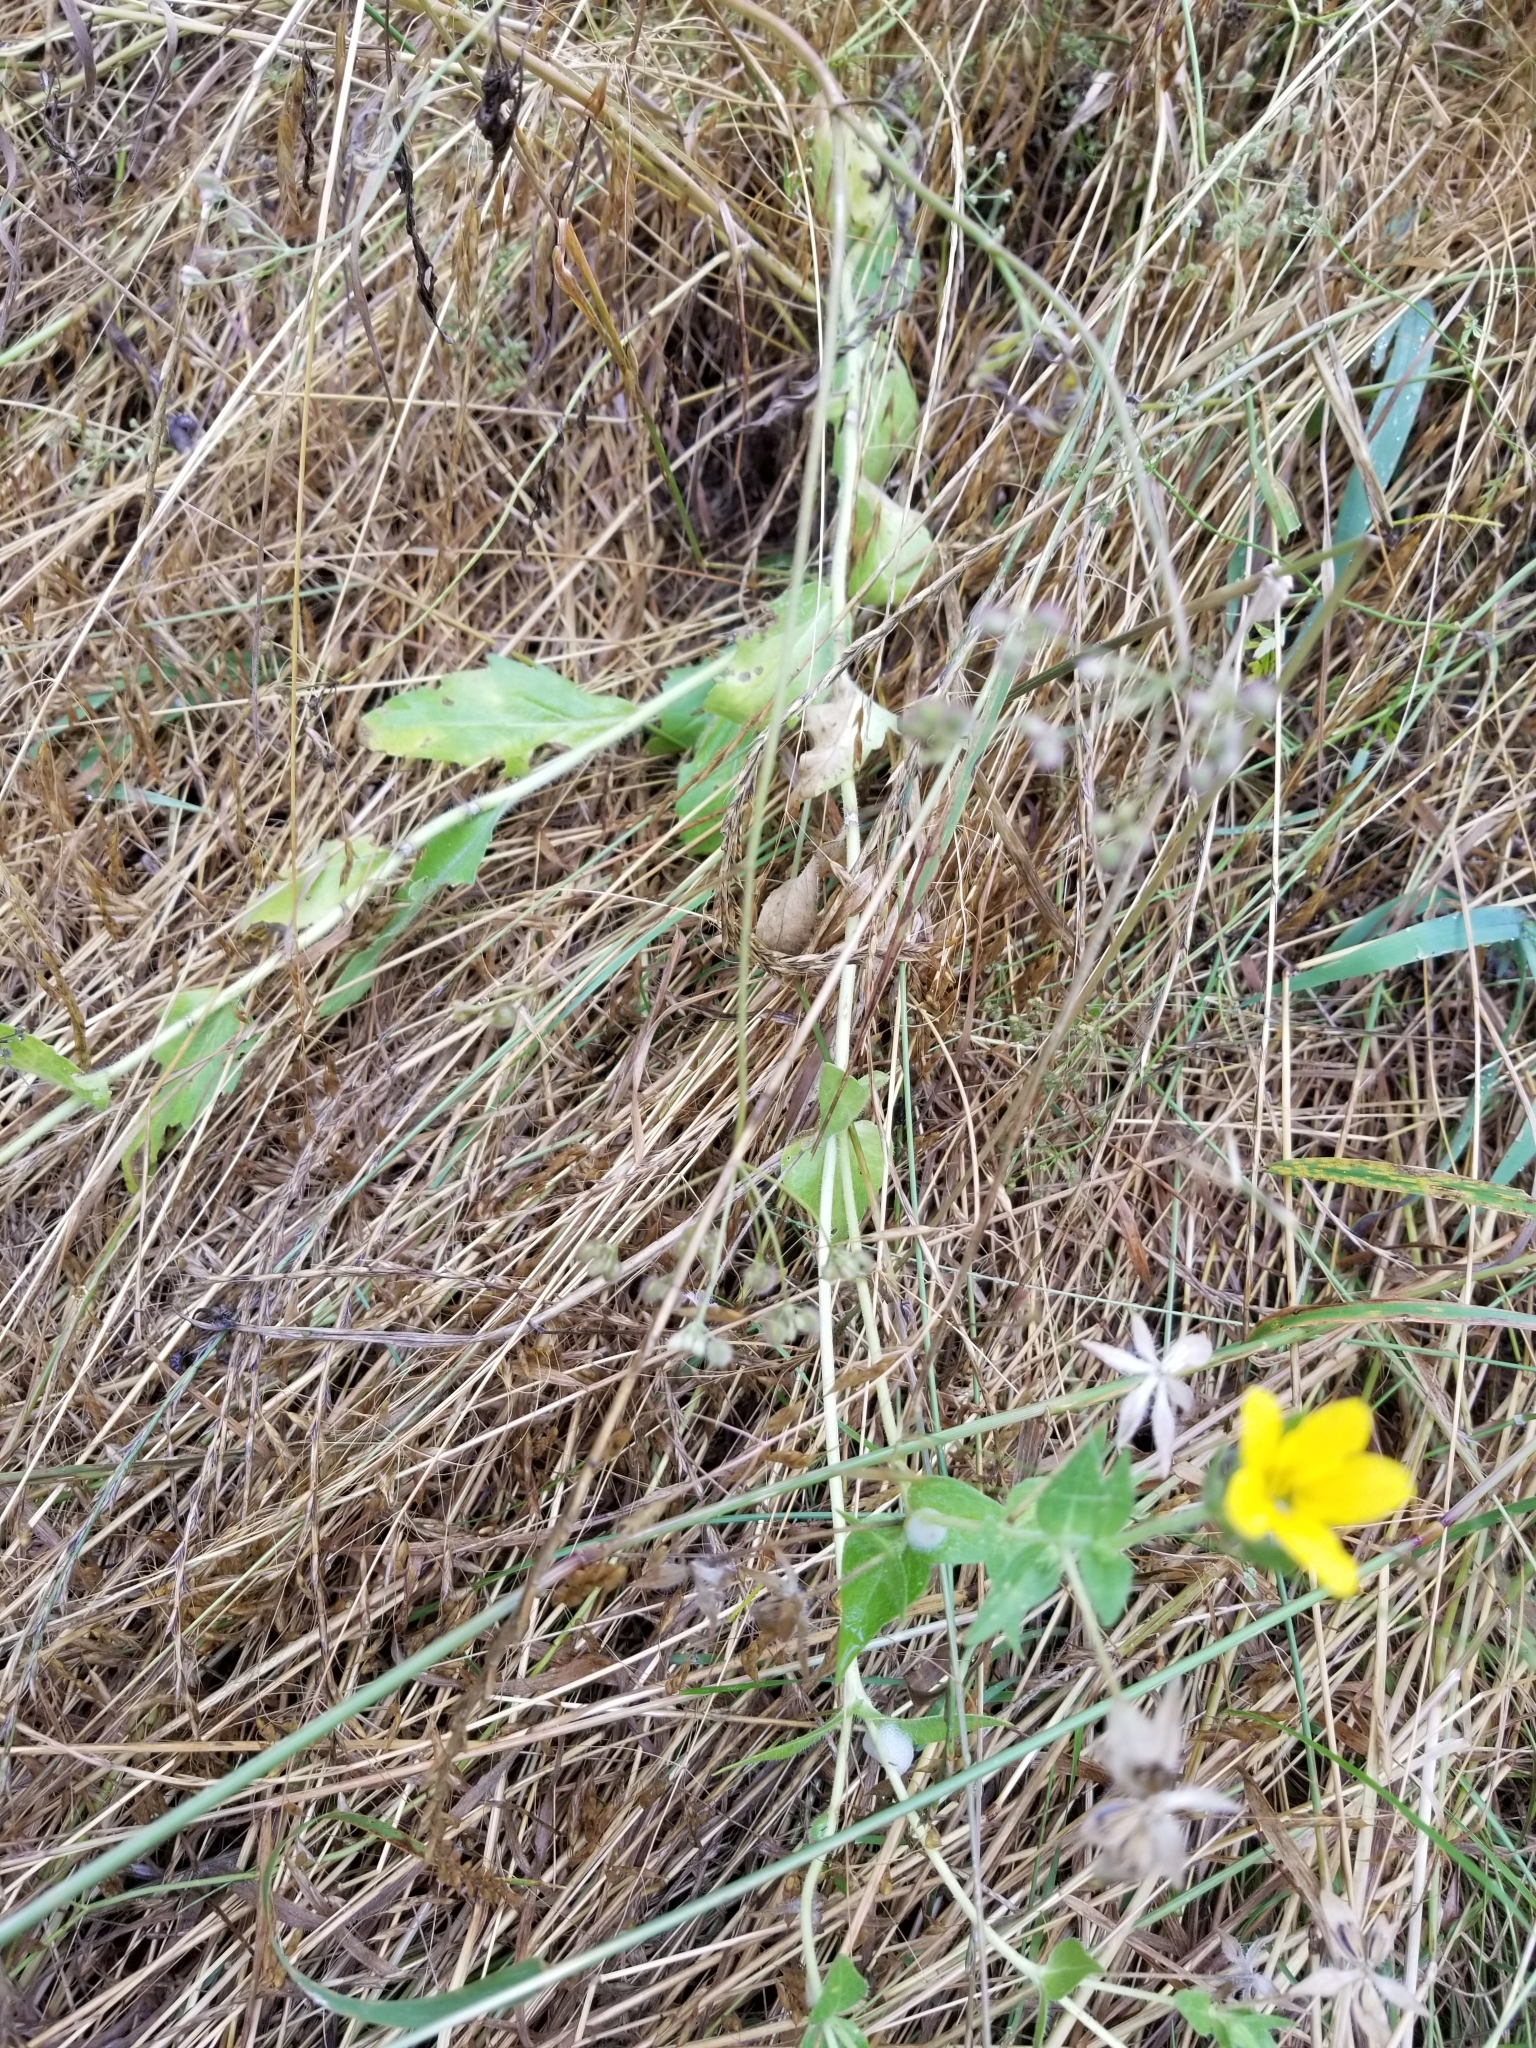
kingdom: Plantae
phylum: Tracheophyta
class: Magnoliopsida
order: Asterales
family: Asteraceae
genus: Lindheimera
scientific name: Lindheimera texana
